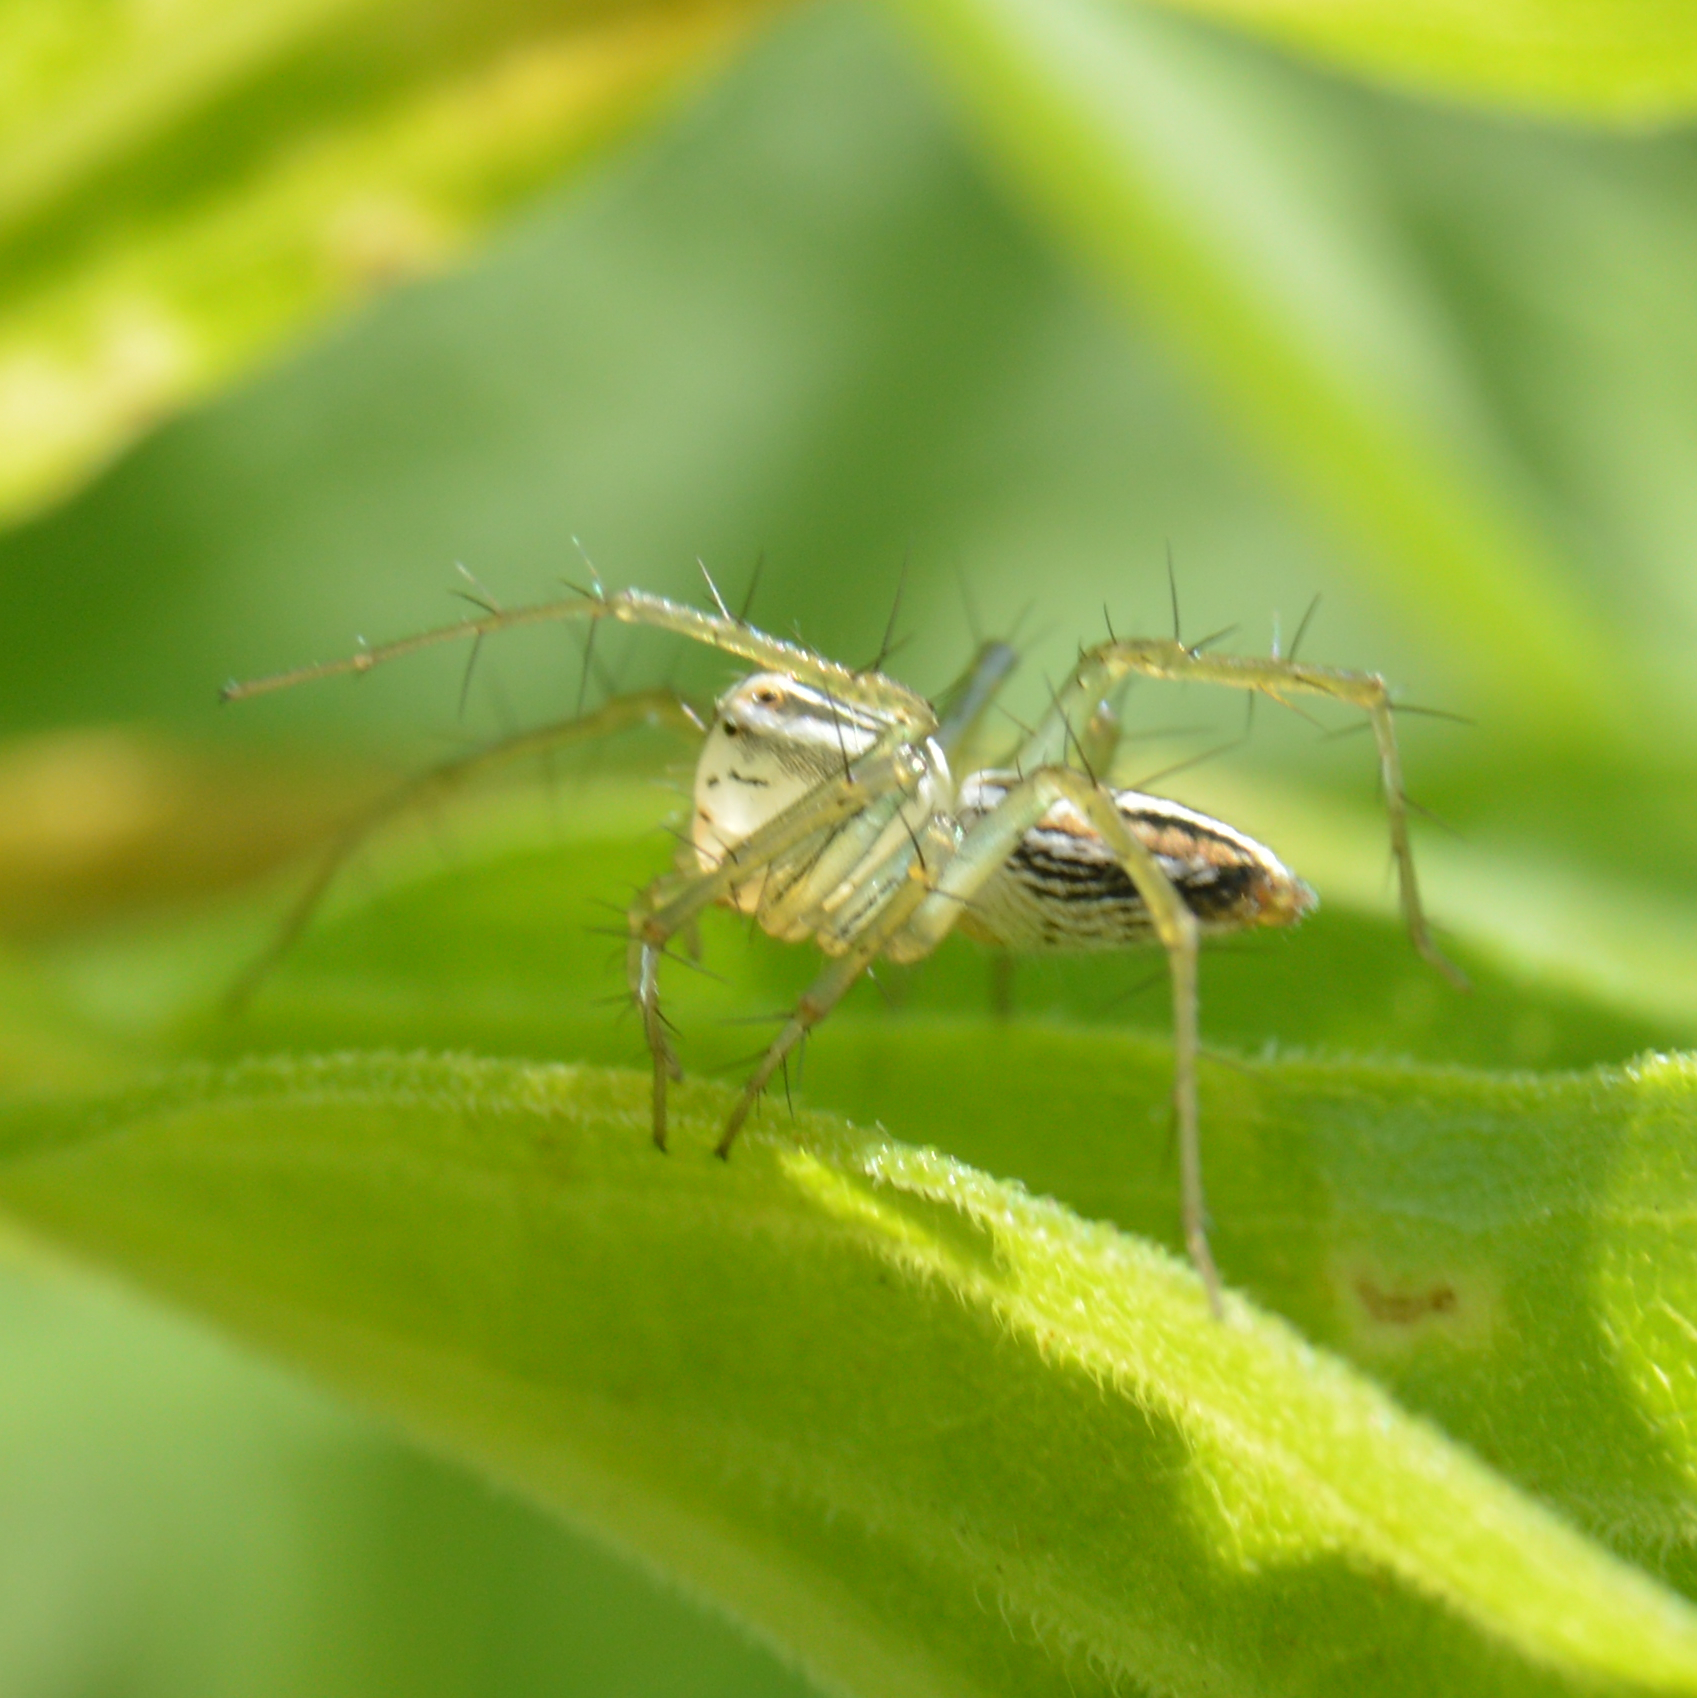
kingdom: Animalia
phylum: Arthropoda
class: Arachnida
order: Araneae
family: Oxyopidae
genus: Oxyopes
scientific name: Oxyopes salticus
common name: Lynx spiders
